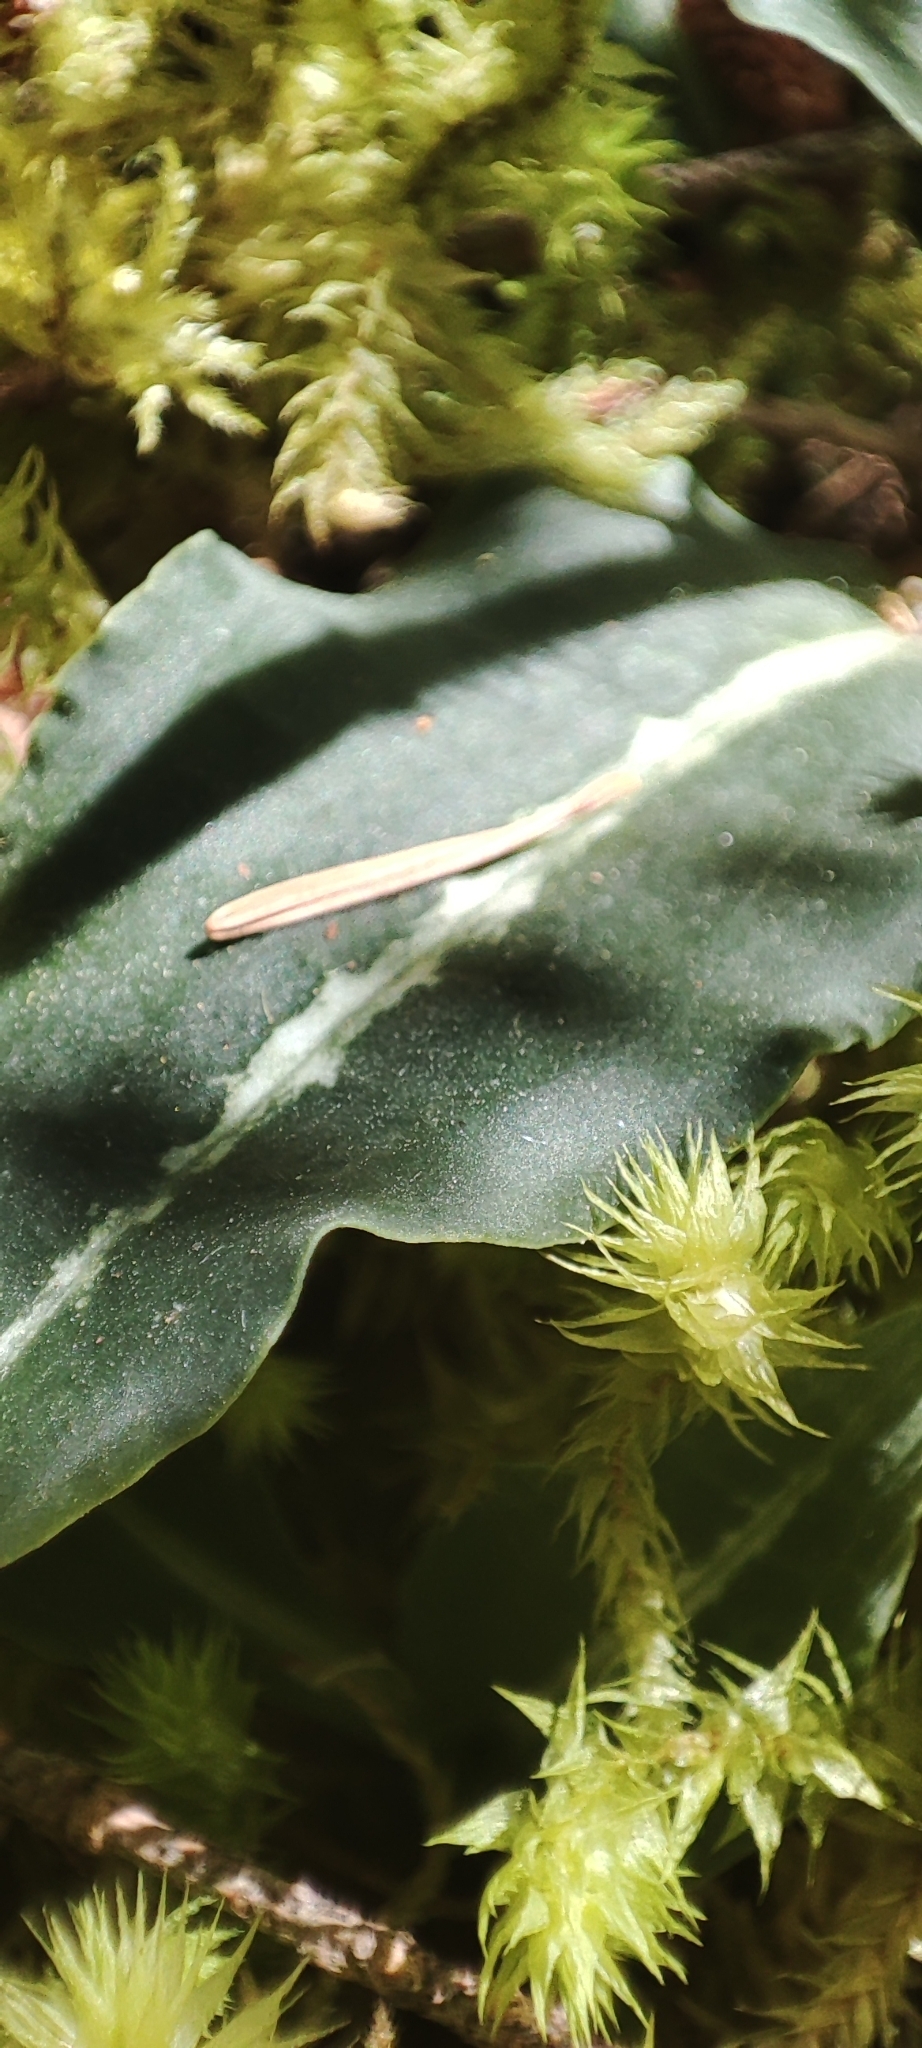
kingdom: Plantae
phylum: Tracheophyta
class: Liliopsida
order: Asparagales
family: Orchidaceae
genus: Goodyera
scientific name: Goodyera oblongifolia
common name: Giant rattlesnake-plantain
